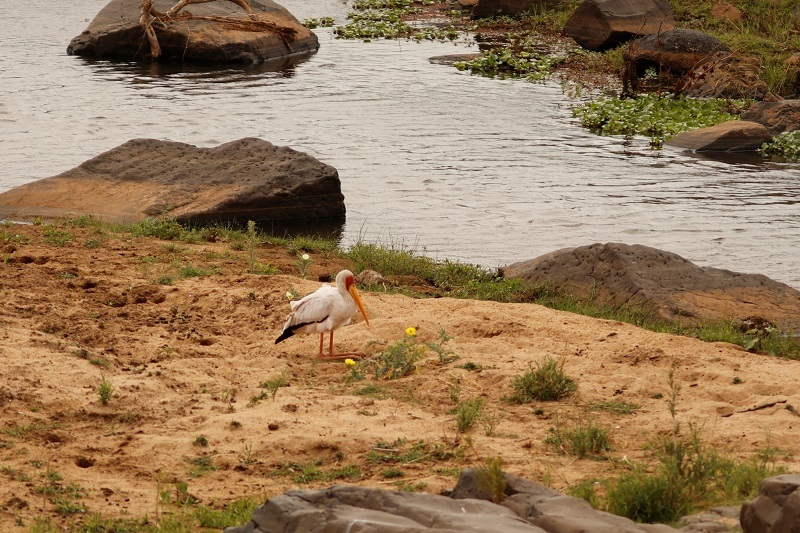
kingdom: Animalia
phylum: Chordata
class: Aves
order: Ciconiiformes
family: Ciconiidae
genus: Mycteria
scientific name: Mycteria ibis
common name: Yellow-billed stork
